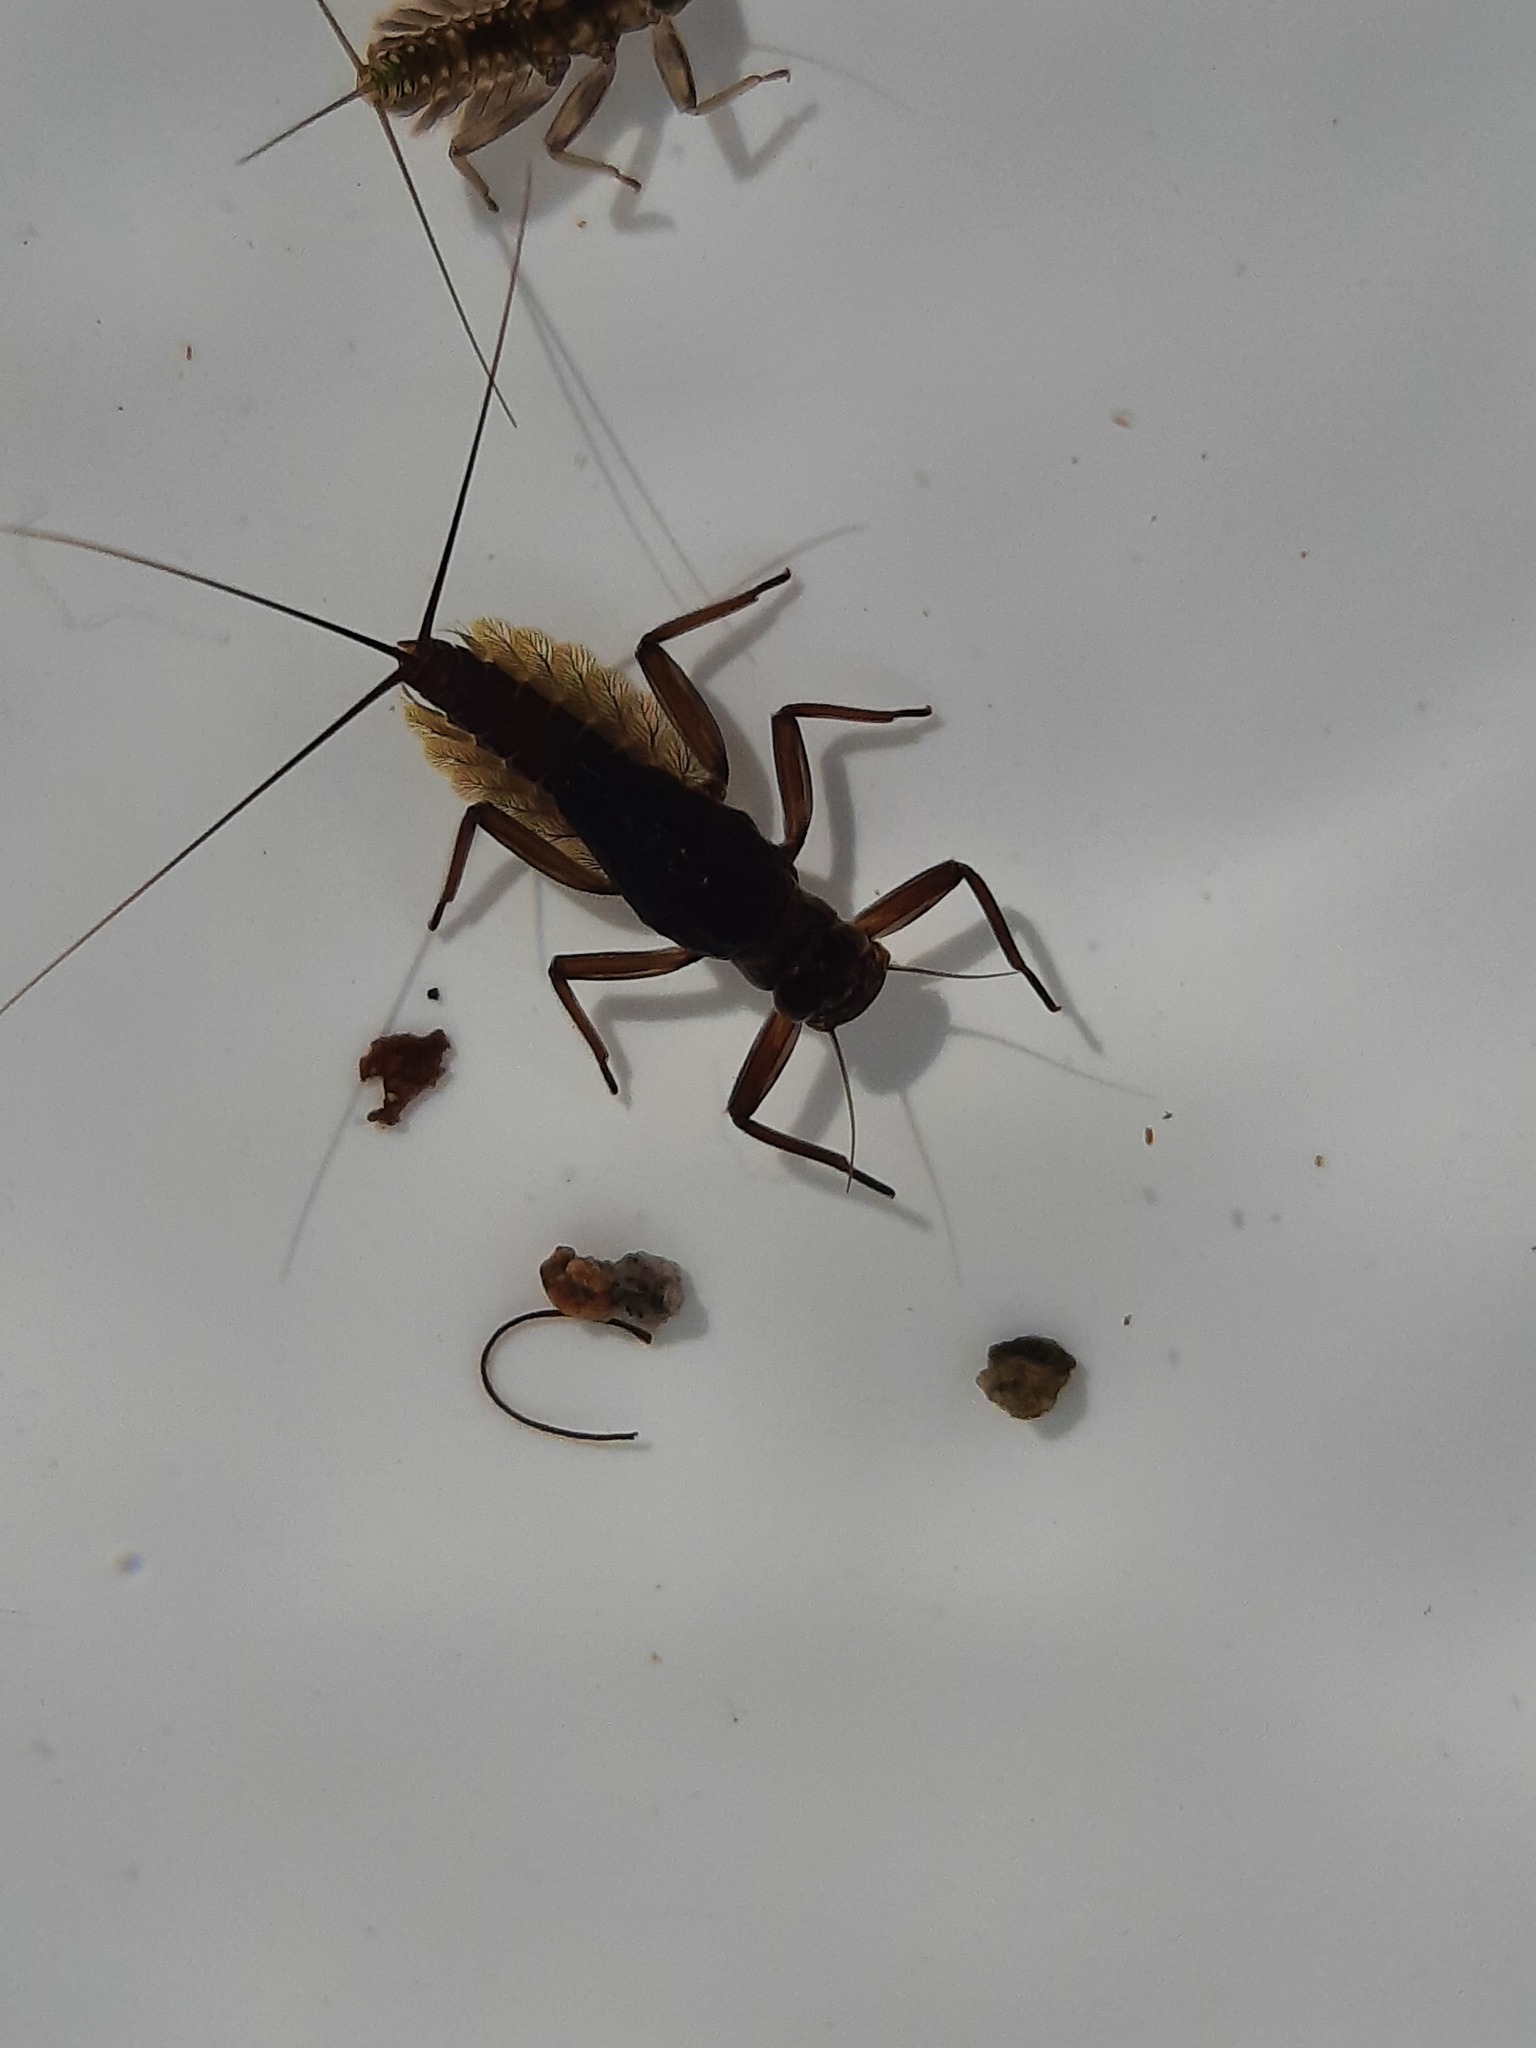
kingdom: Animalia
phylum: Arthropoda
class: Insecta
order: Ephemeroptera
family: Leptophlebiidae
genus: Deleatidium
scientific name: Deleatidium myzobranchia
